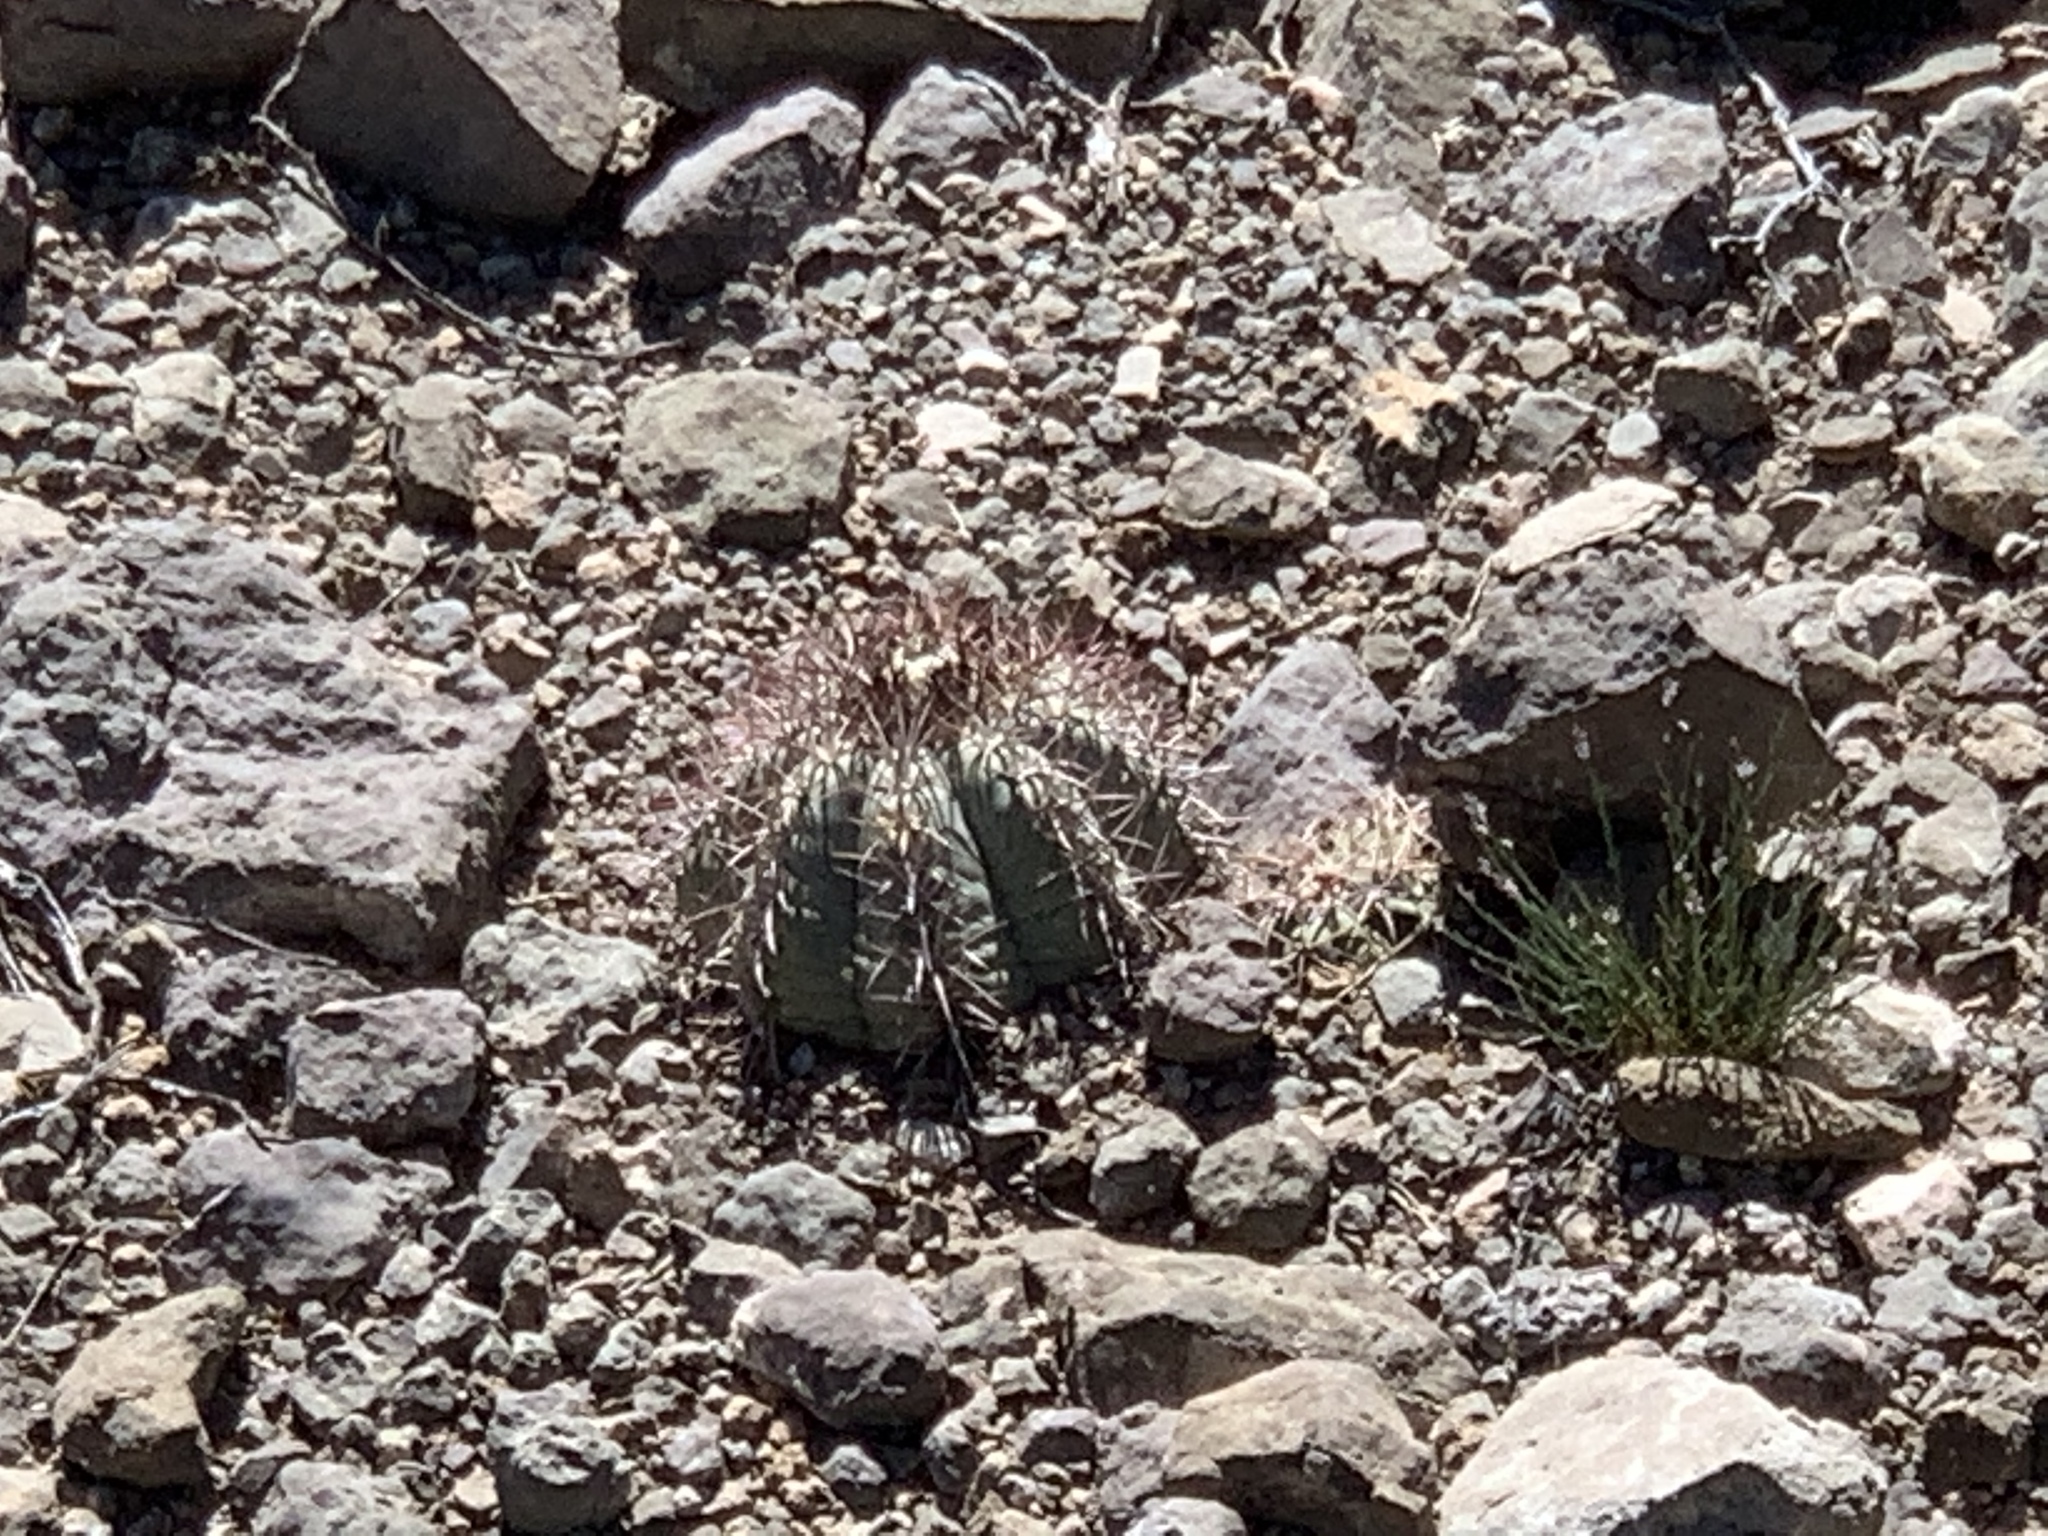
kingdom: Plantae
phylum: Tracheophyta
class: Magnoliopsida
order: Caryophyllales
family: Cactaceae
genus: Echinocactus
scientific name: Echinocactus horizonthalonius
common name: Devilshead
